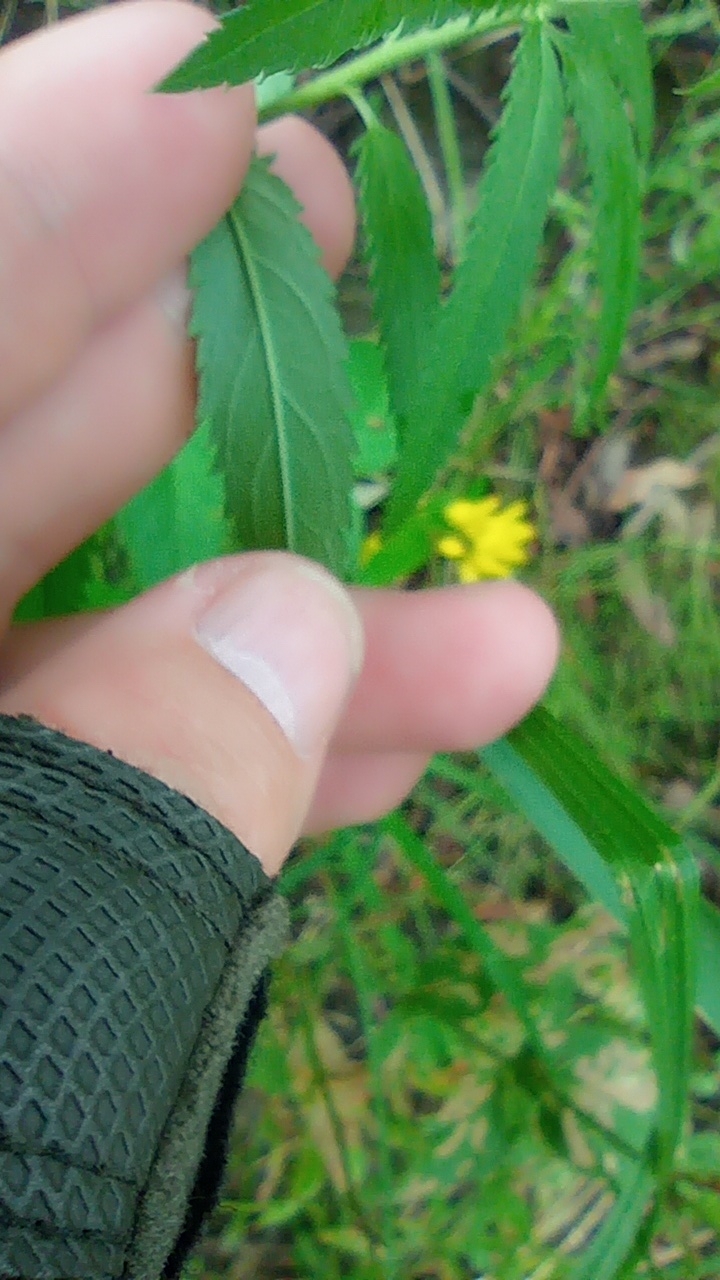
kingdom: Plantae
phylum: Tracheophyta
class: Magnoliopsida
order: Lamiales
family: Plantaginaceae
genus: Veronica
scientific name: Veronica longifolia
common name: Garden speedwell
